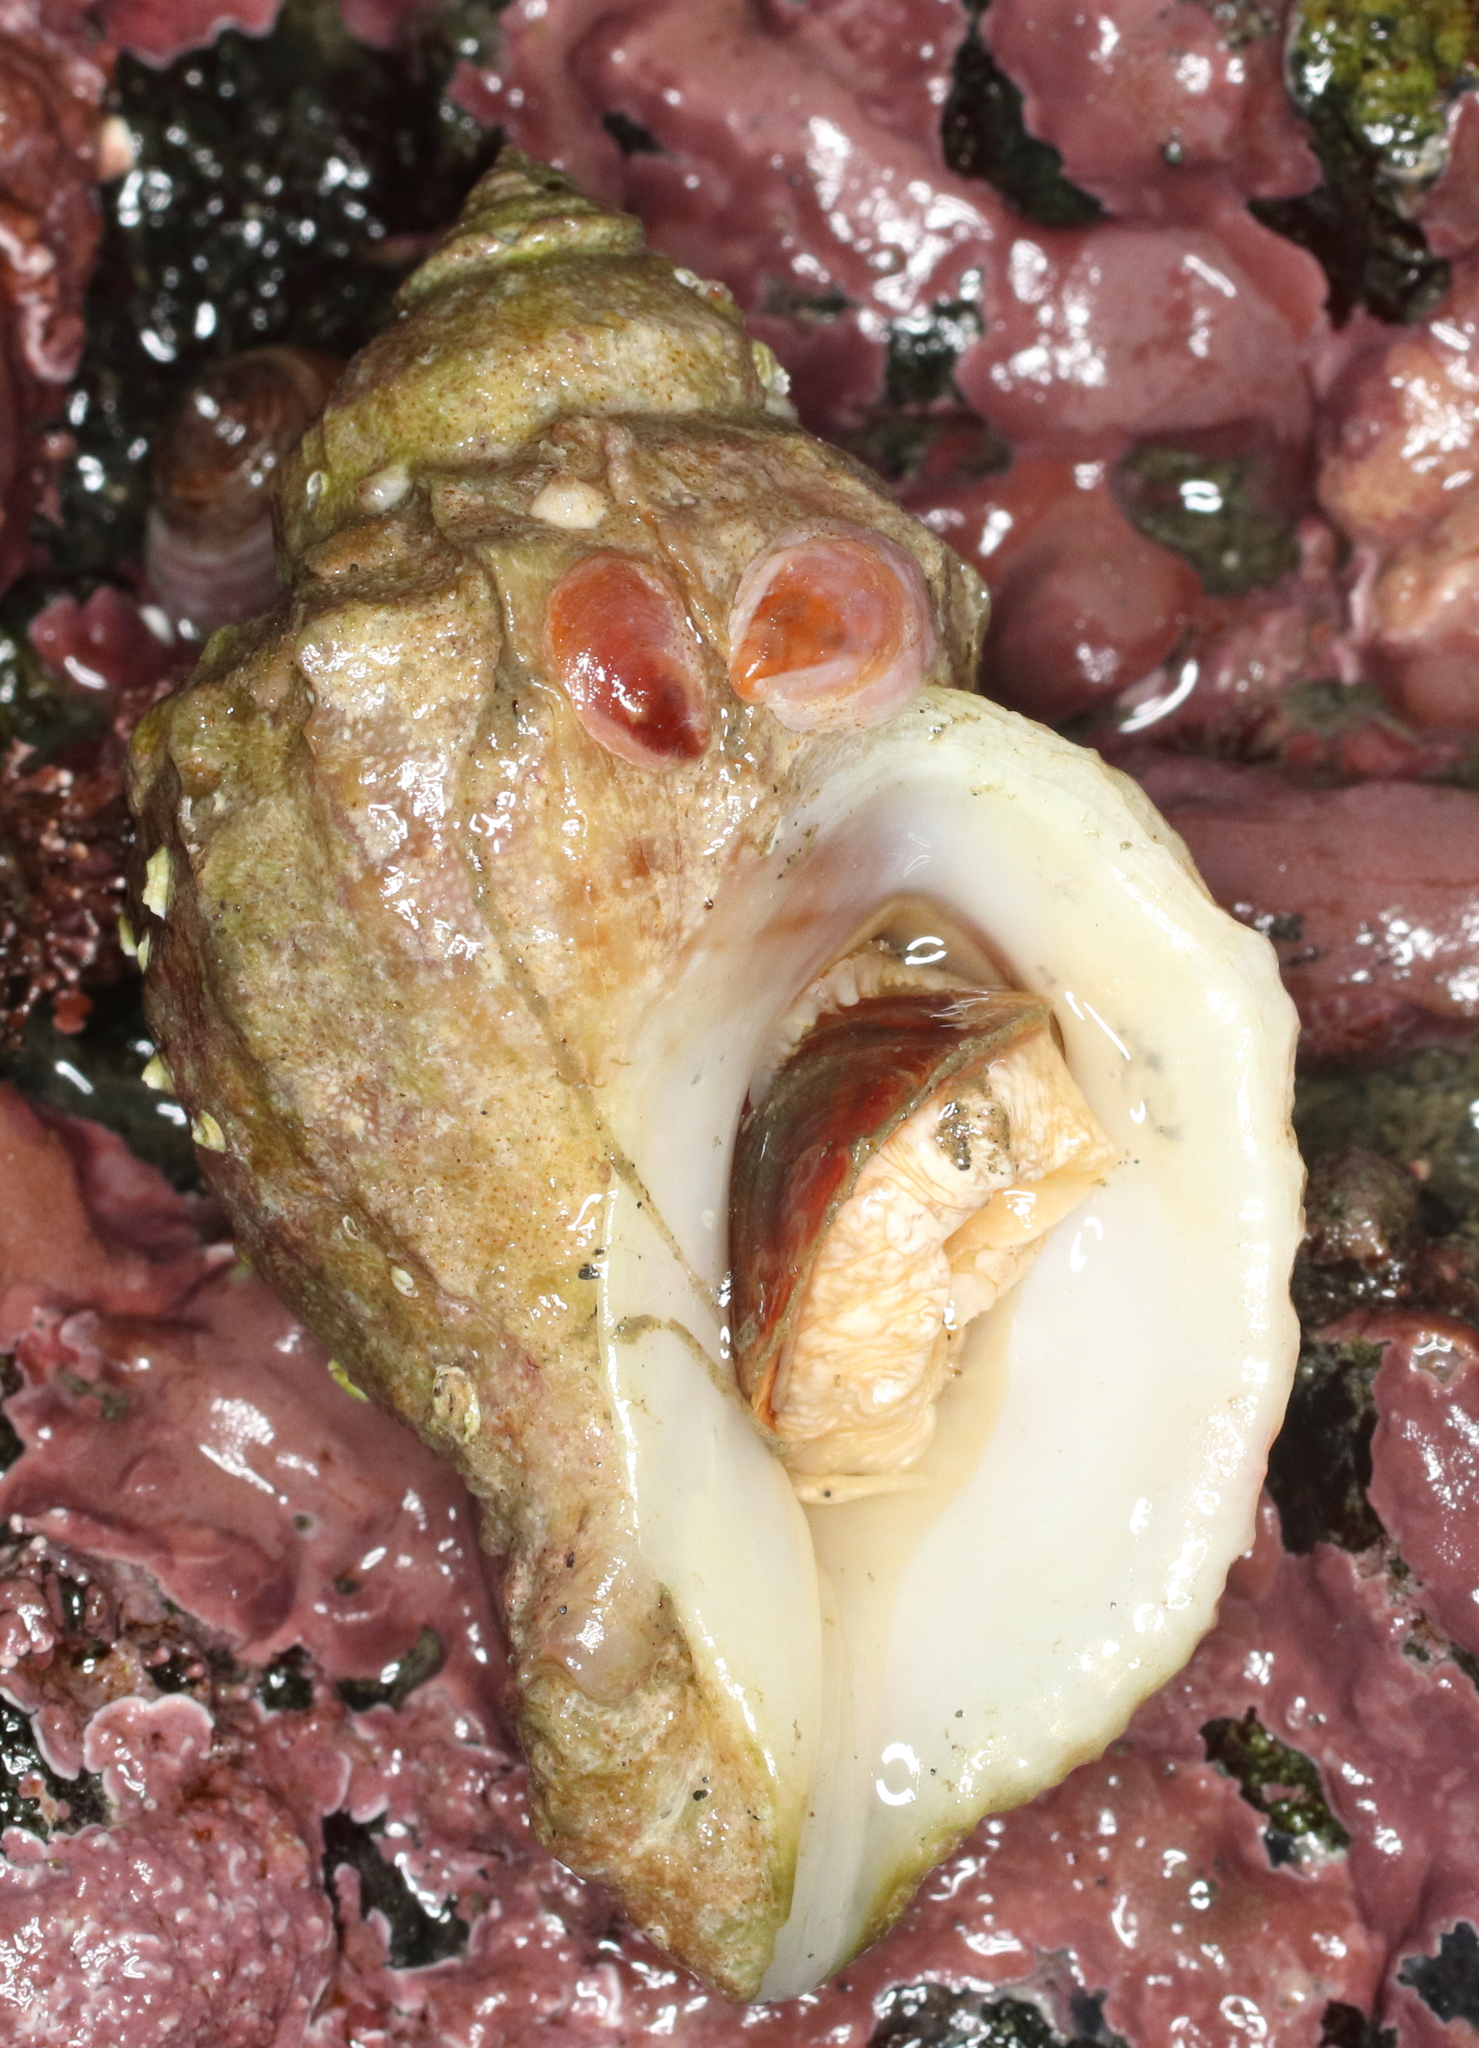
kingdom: Animalia
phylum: Mollusca
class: Gastropoda
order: Neogastropoda
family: Muricidae
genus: Nucella
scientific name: Nucella lamellosa
